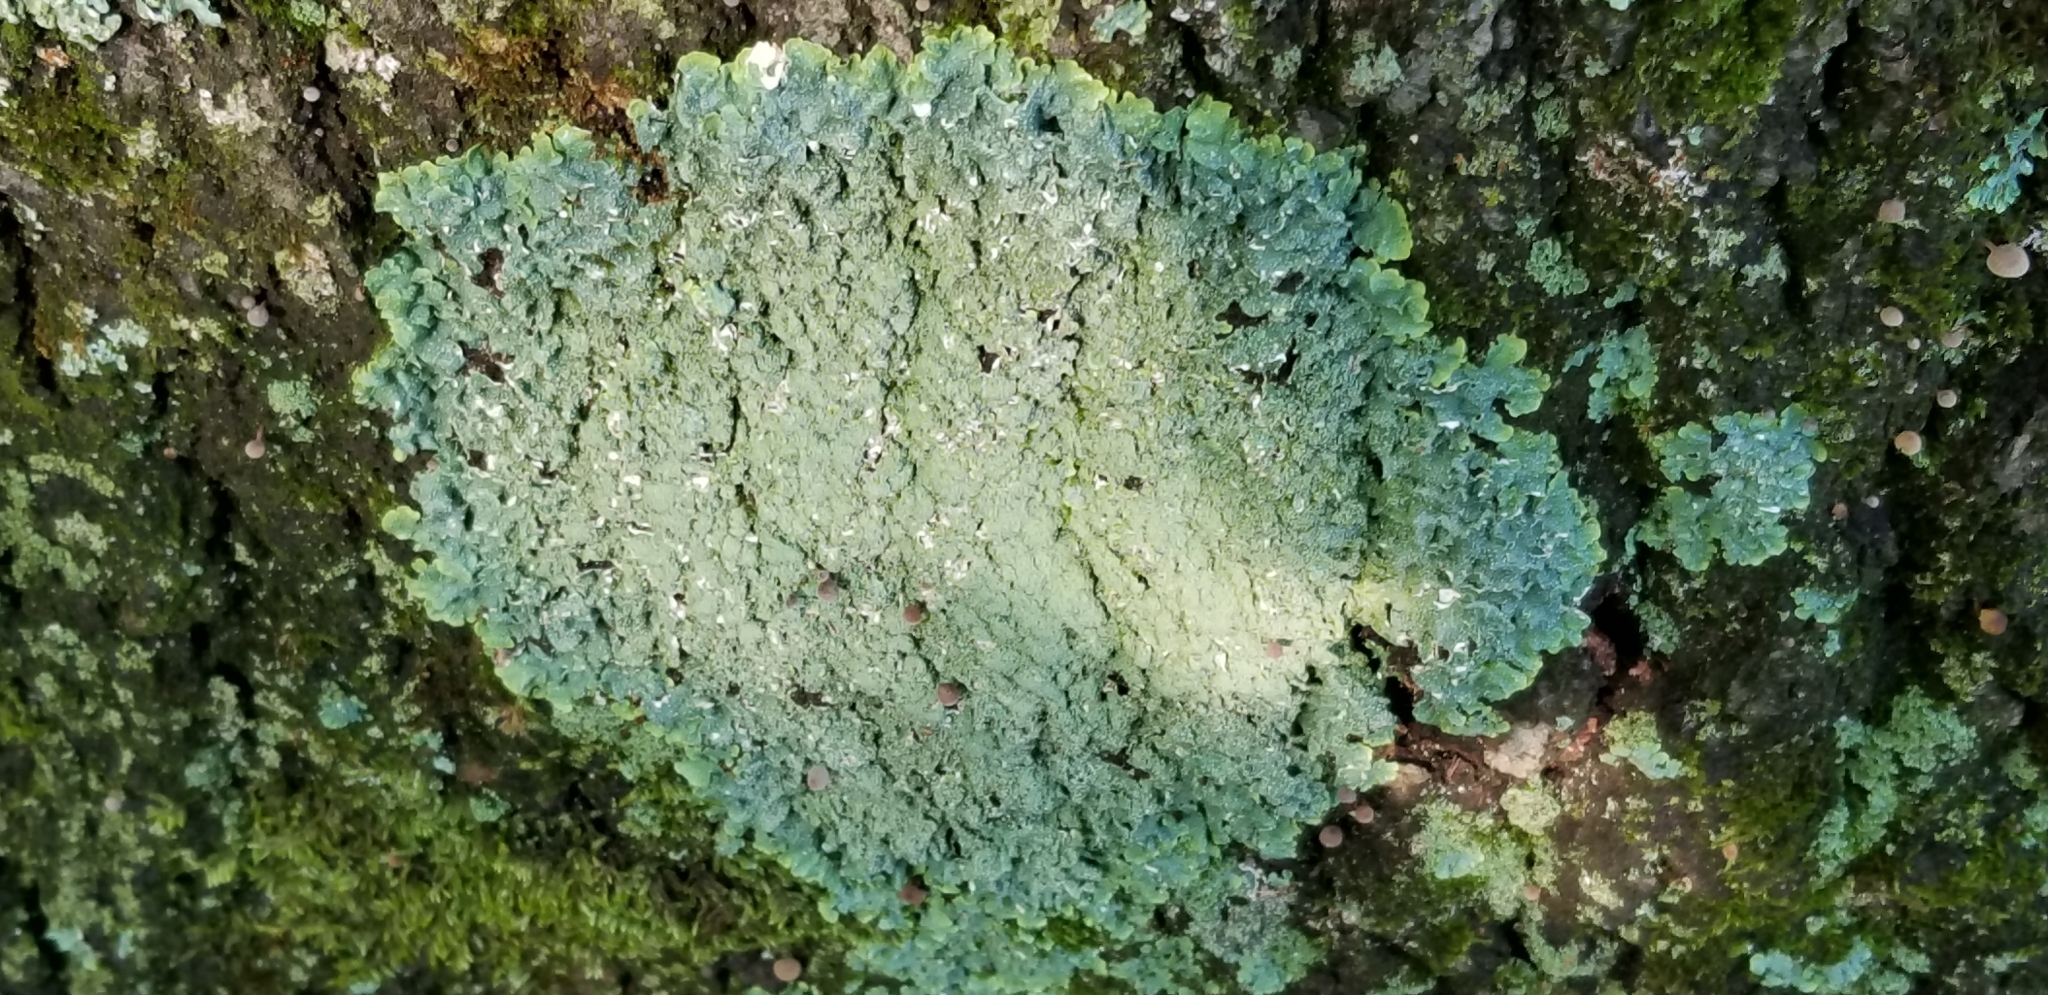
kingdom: Fungi
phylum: Ascomycota
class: Lecanoromycetes
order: Lecanorales
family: Parmeliaceae
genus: Punctelia
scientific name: Punctelia missouriensis
